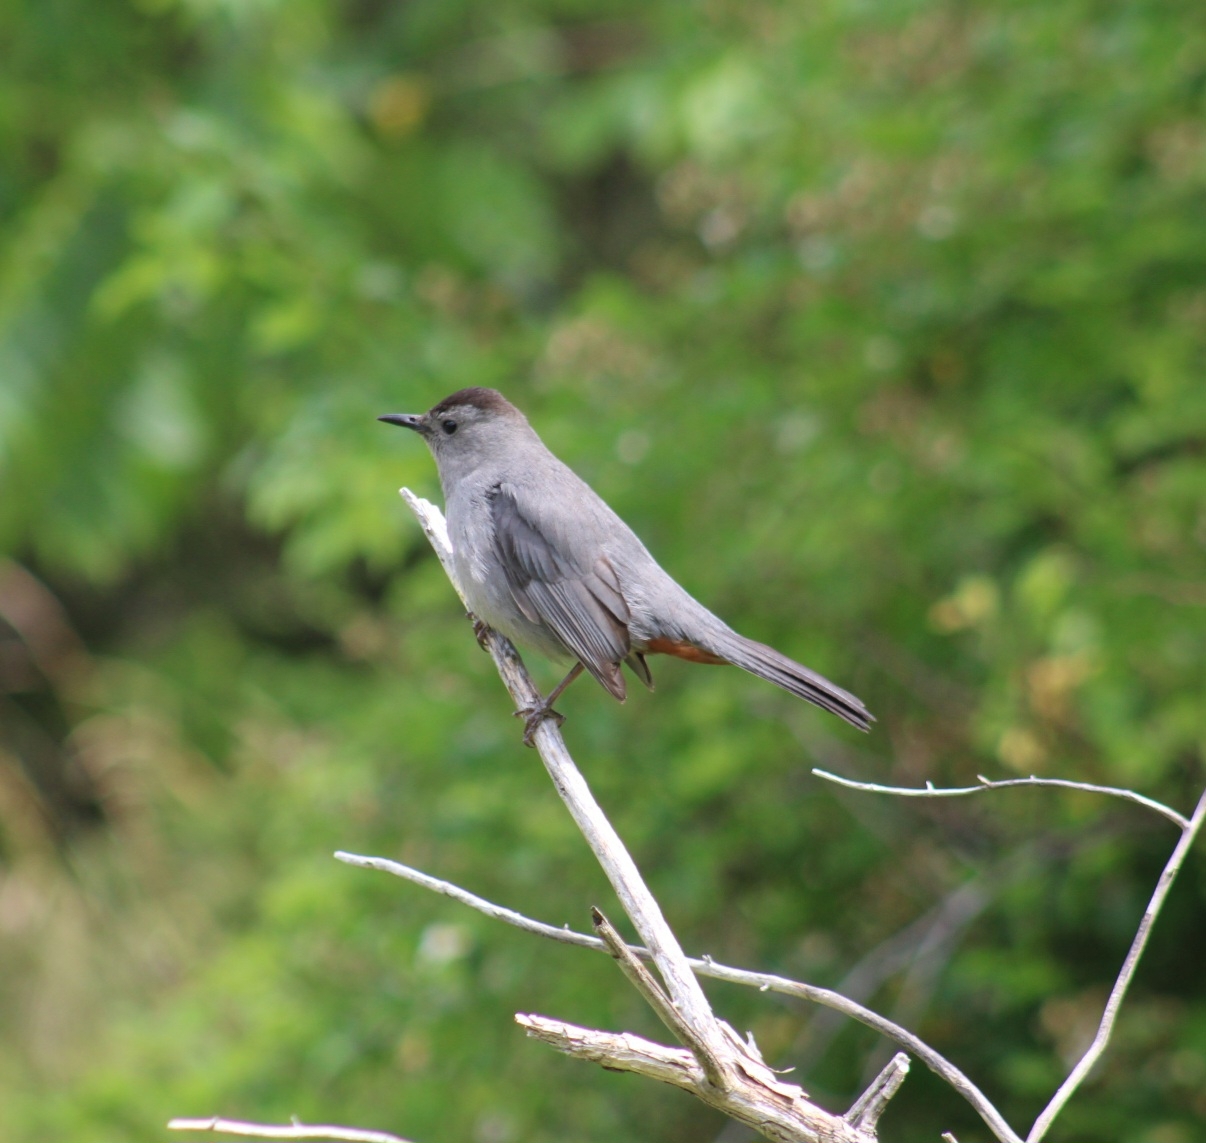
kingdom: Animalia
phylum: Chordata
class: Aves
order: Passeriformes
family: Mimidae
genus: Dumetella
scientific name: Dumetella carolinensis
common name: Gray catbird
